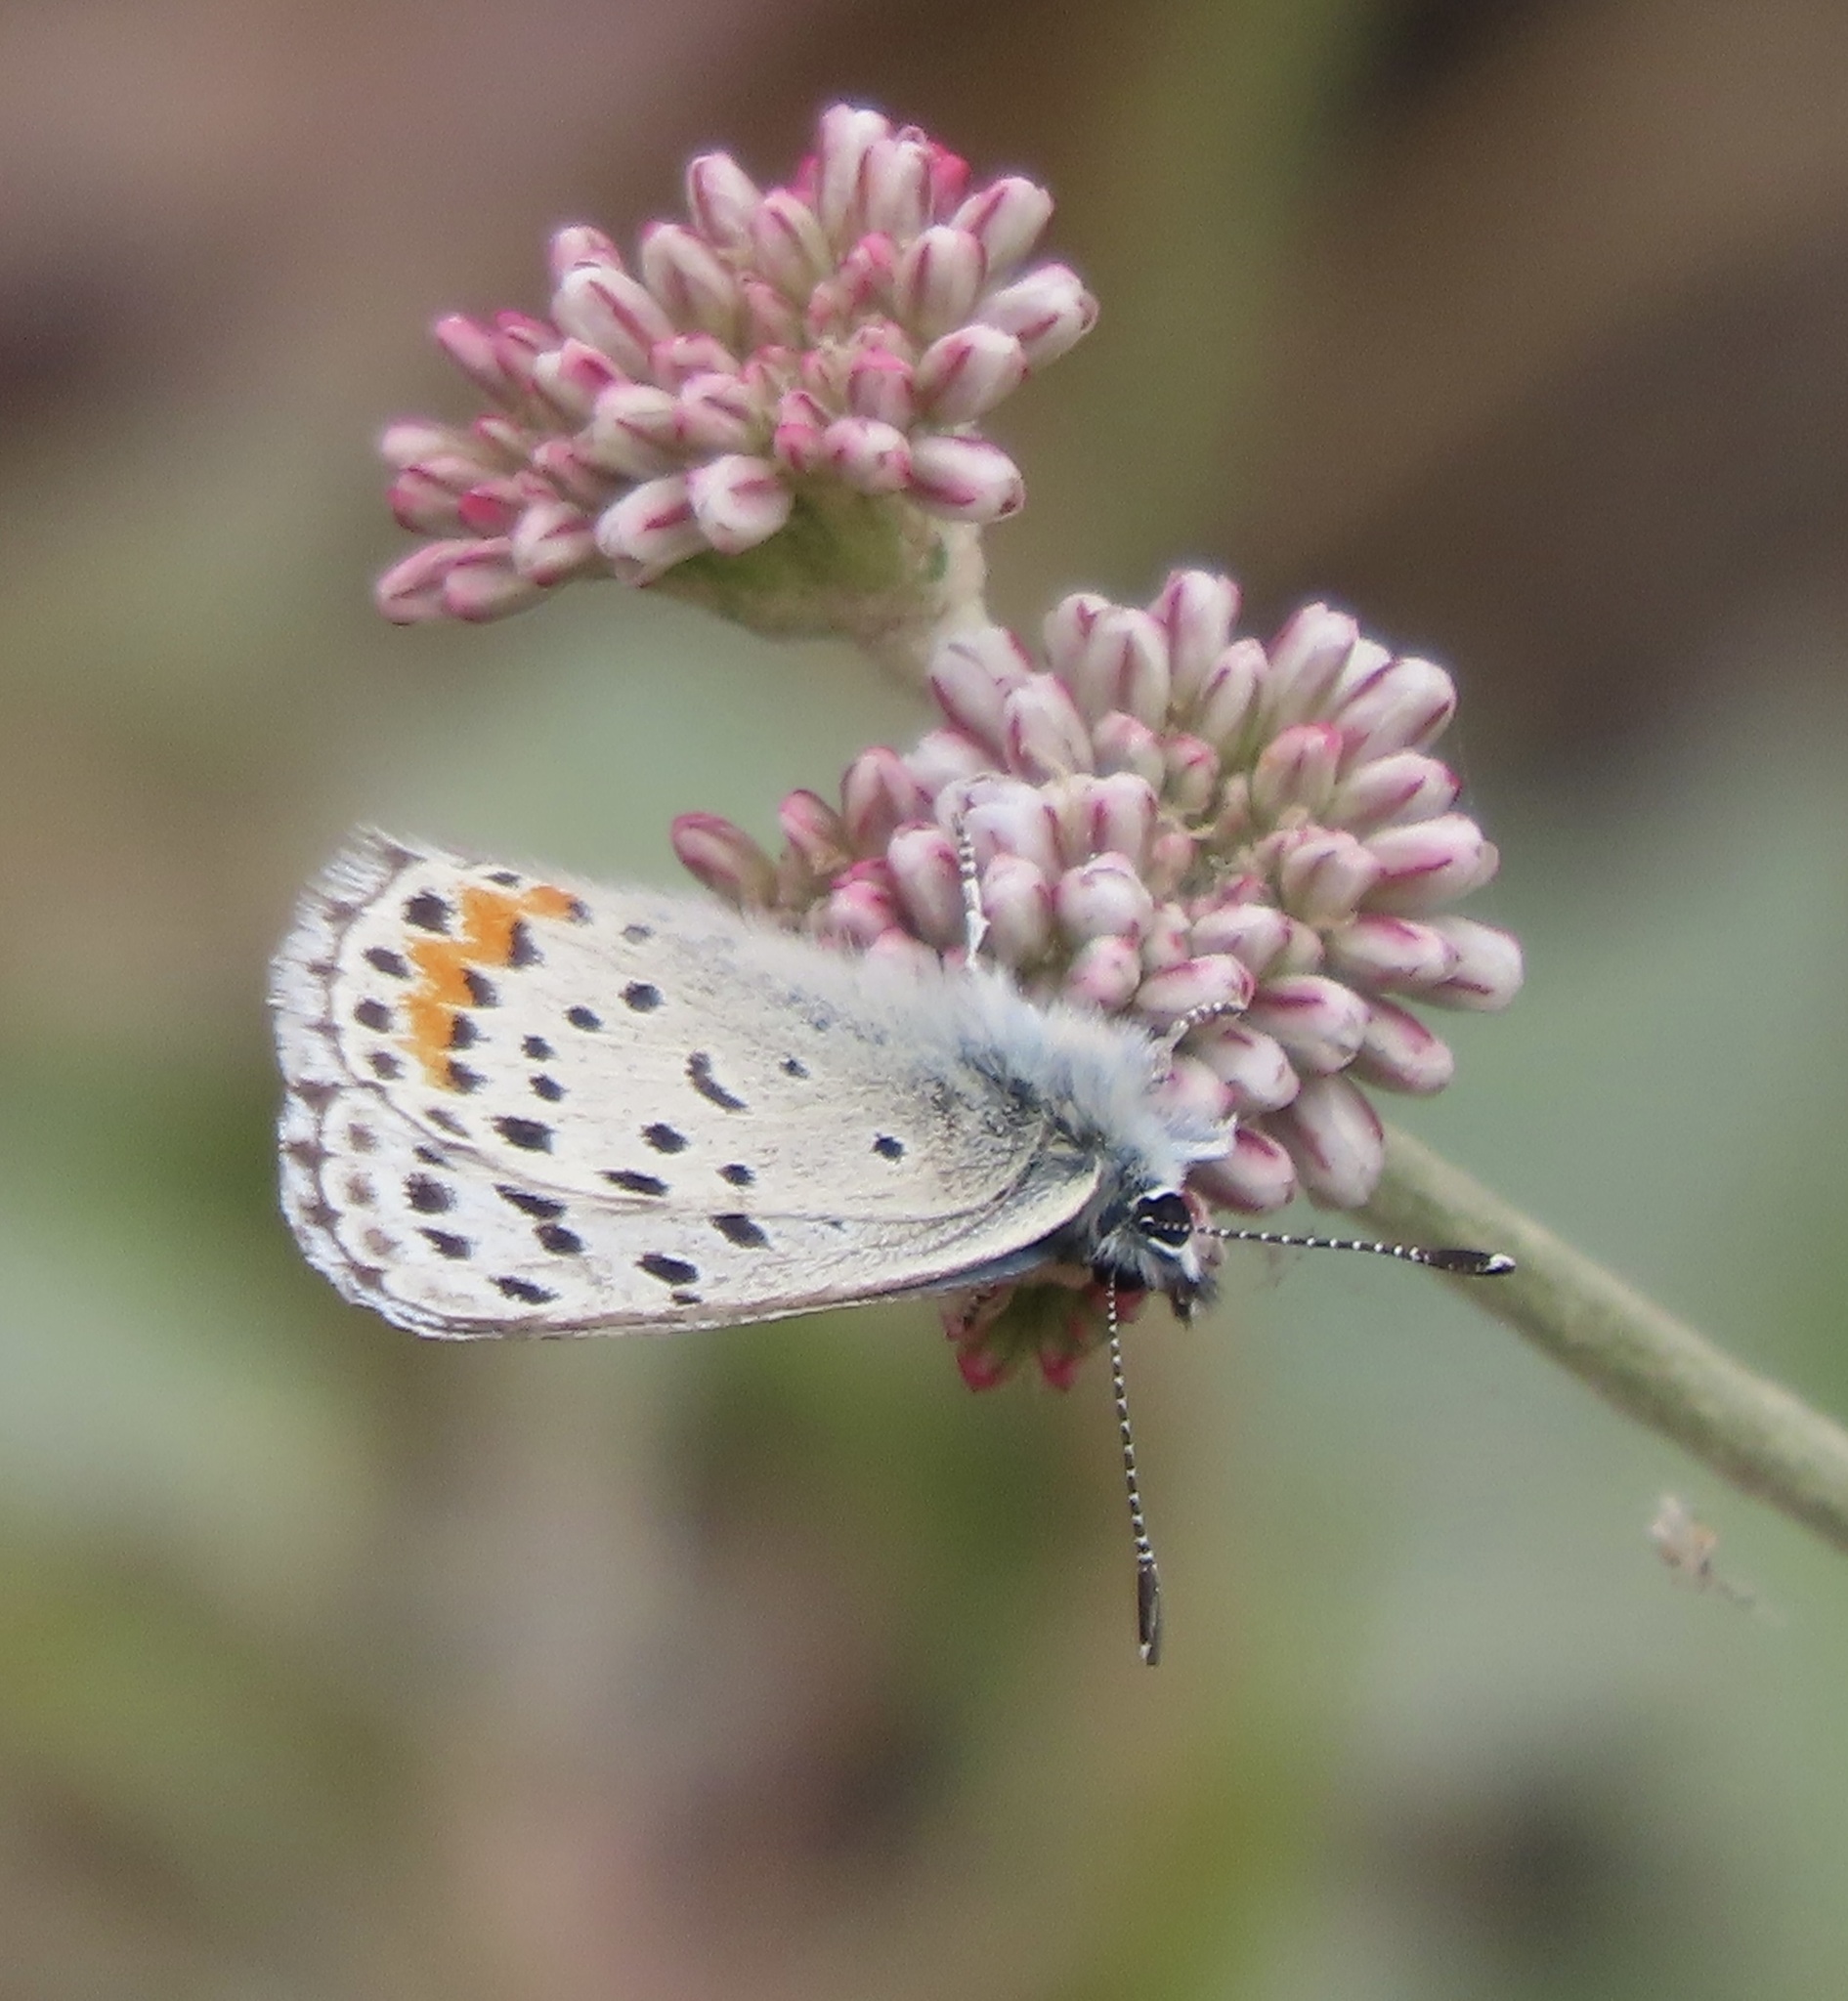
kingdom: Animalia
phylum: Arthropoda
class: Insecta
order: Lepidoptera
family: Lycaenidae
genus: Euphilotes
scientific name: Euphilotes enoptes
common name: Dotted blue
